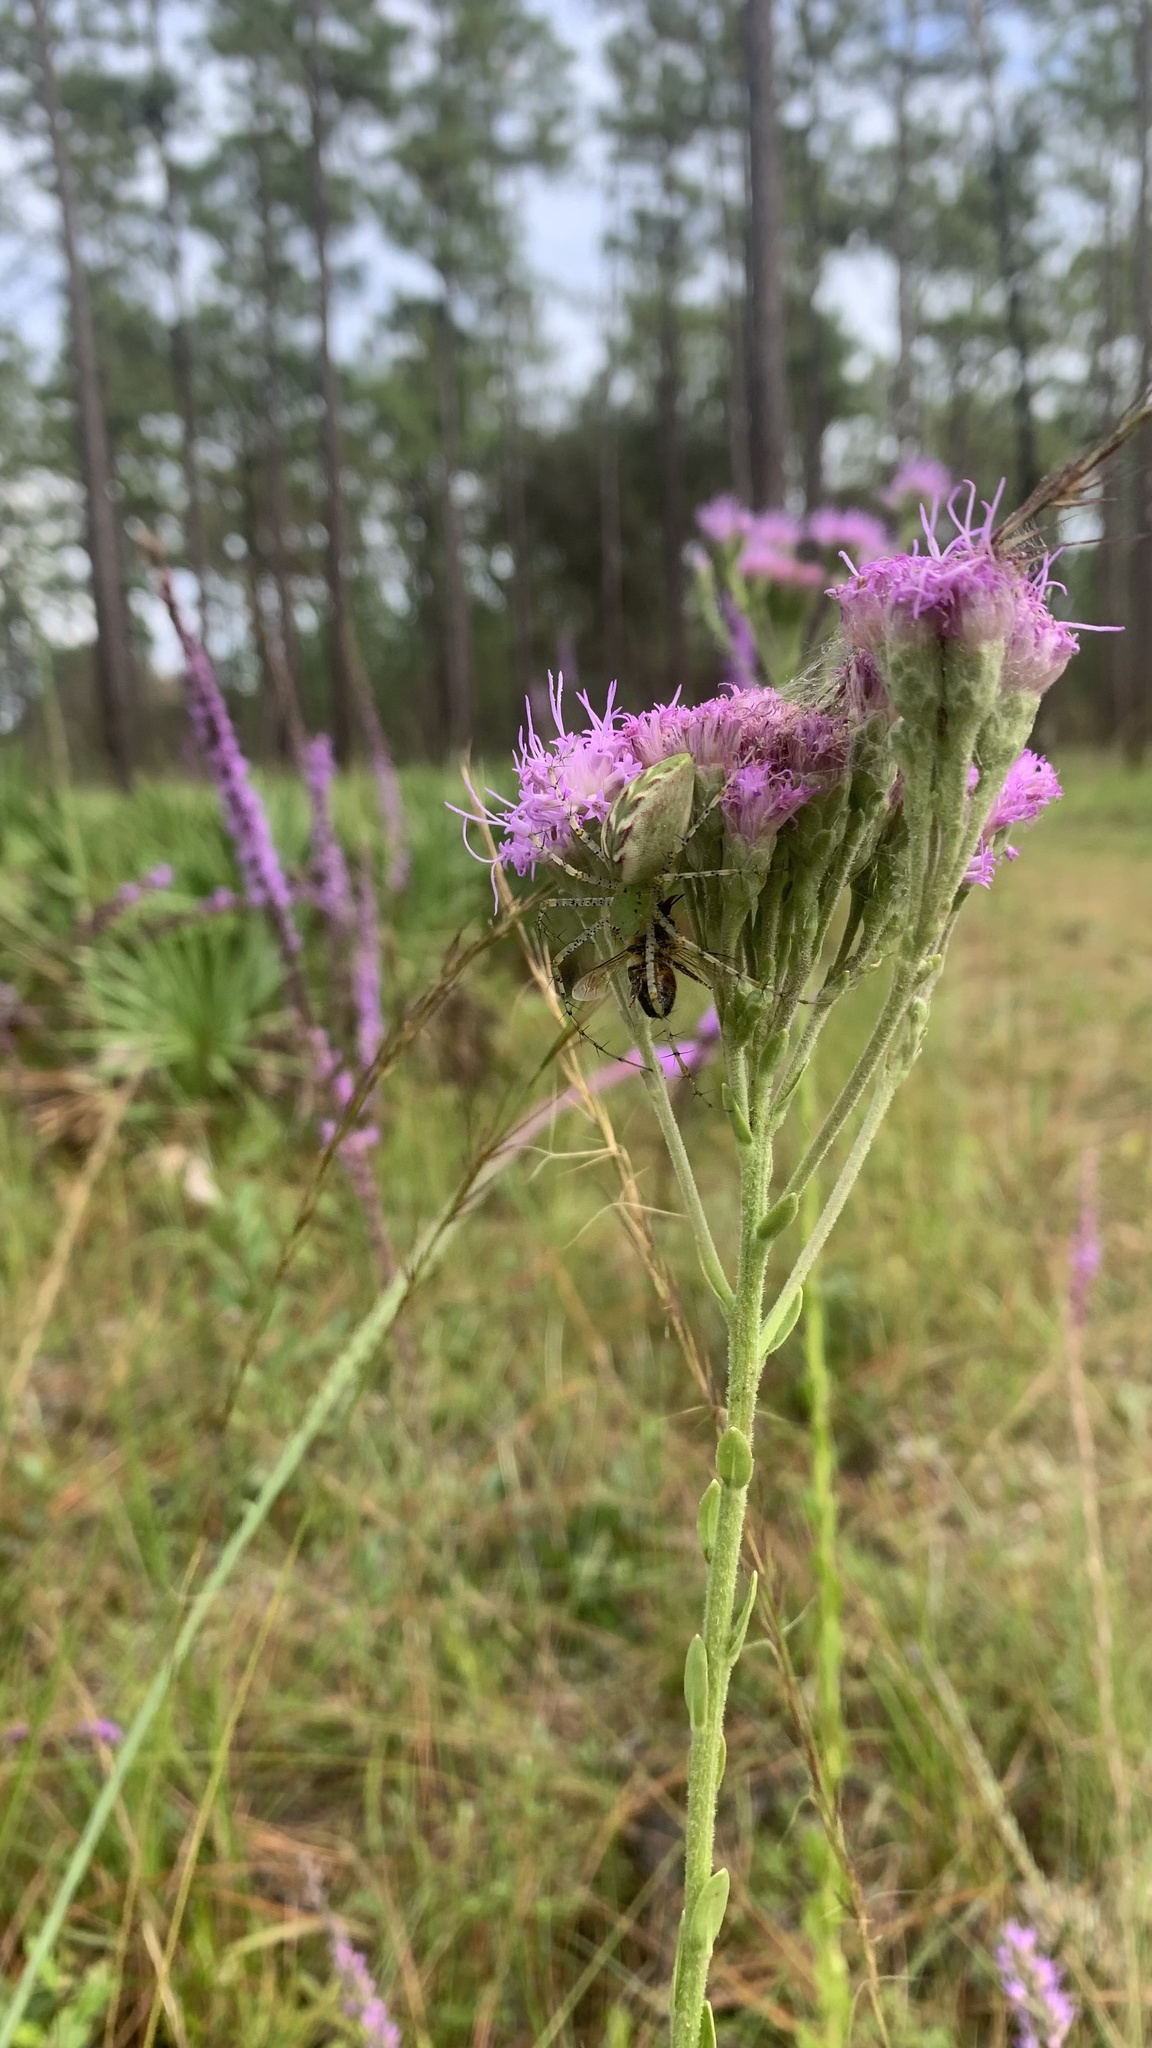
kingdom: Animalia
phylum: Arthropoda
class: Arachnida
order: Araneae
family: Oxyopidae
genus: Peucetia
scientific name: Peucetia viridans
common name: Lynx spiders
